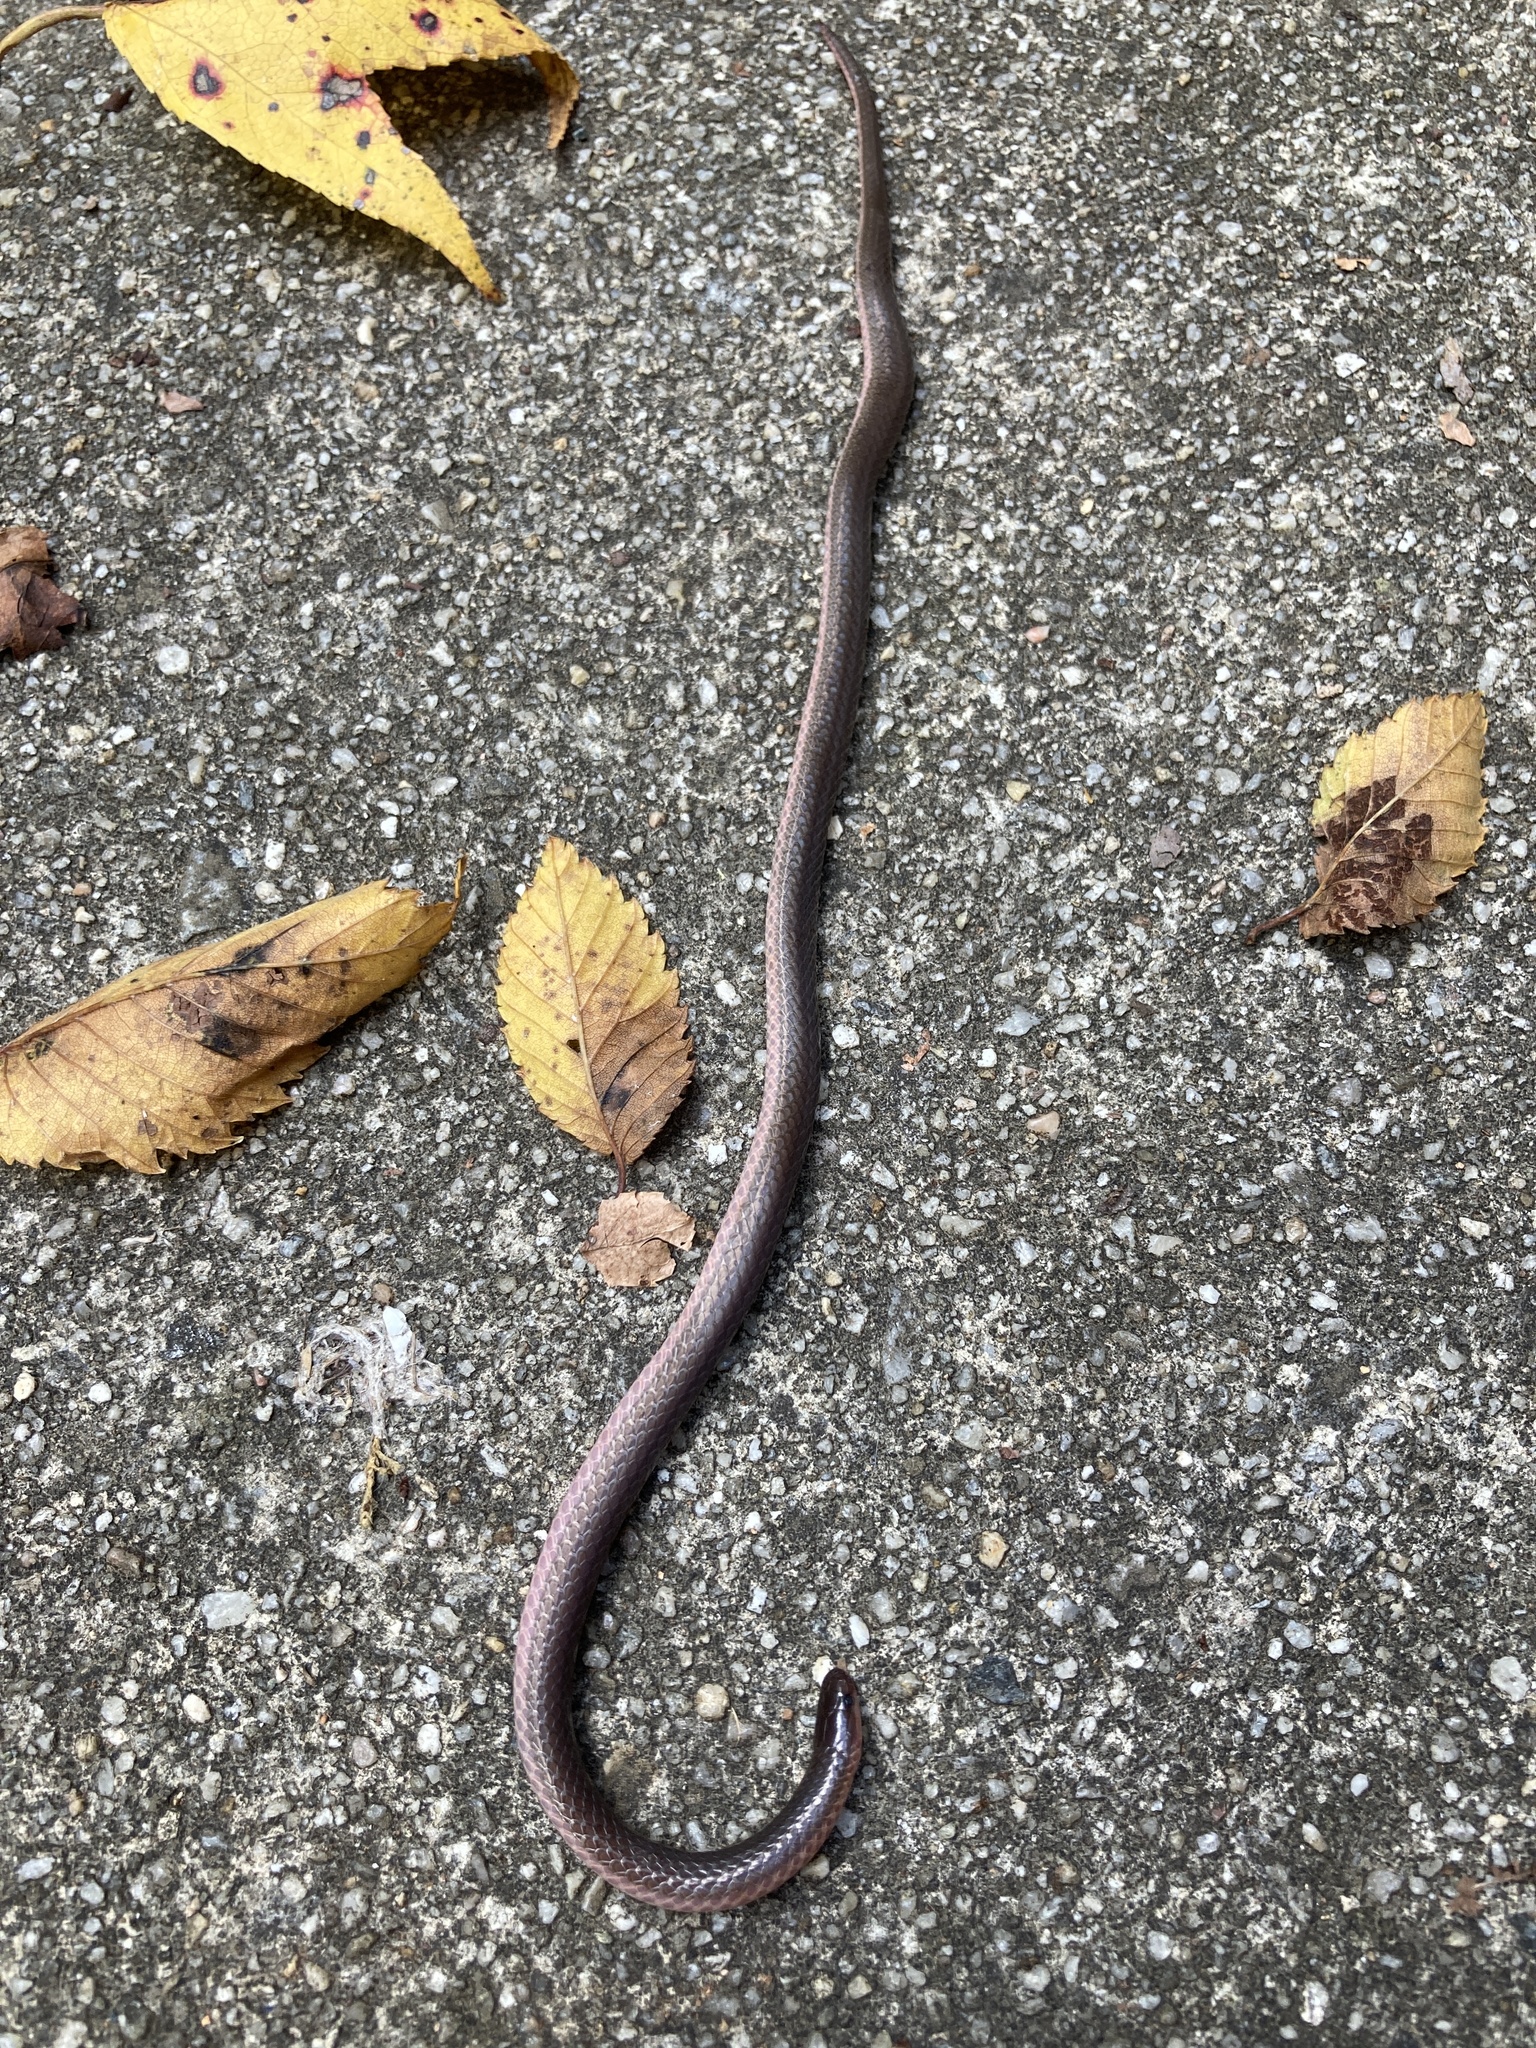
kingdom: Animalia
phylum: Chordata
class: Squamata
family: Colubridae
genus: Carphophis
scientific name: Carphophis amoenus
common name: Eastern worm snake
